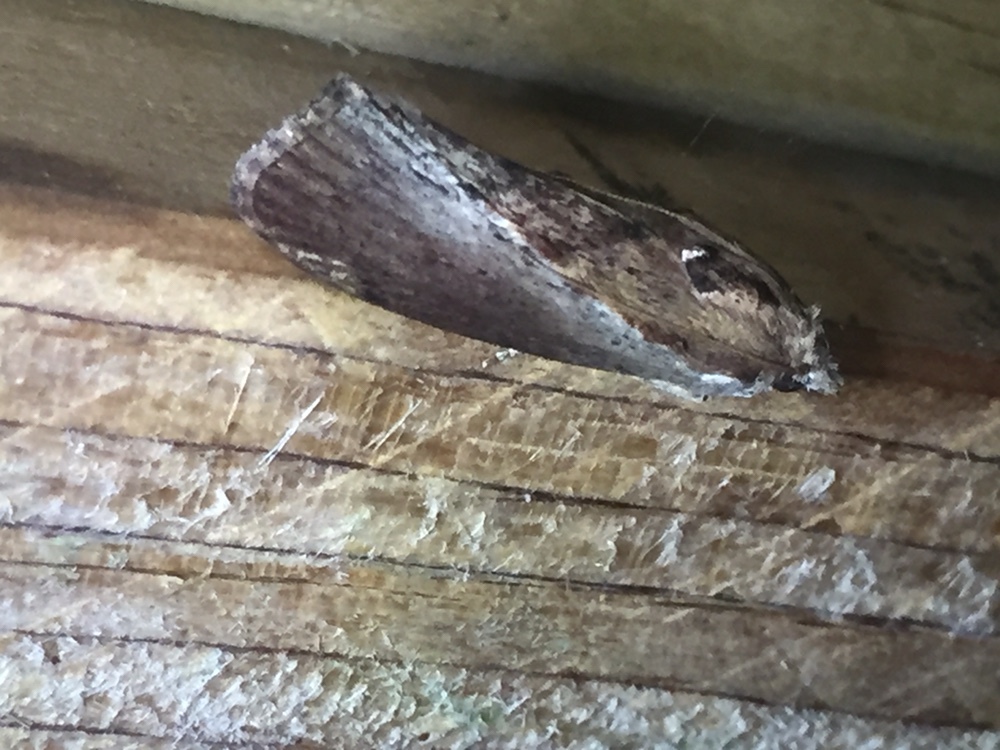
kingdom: Animalia
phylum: Arthropoda
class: Insecta
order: Lepidoptera
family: Pyralidae
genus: Galleria
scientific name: Galleria mellonella
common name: Greater wax moth
